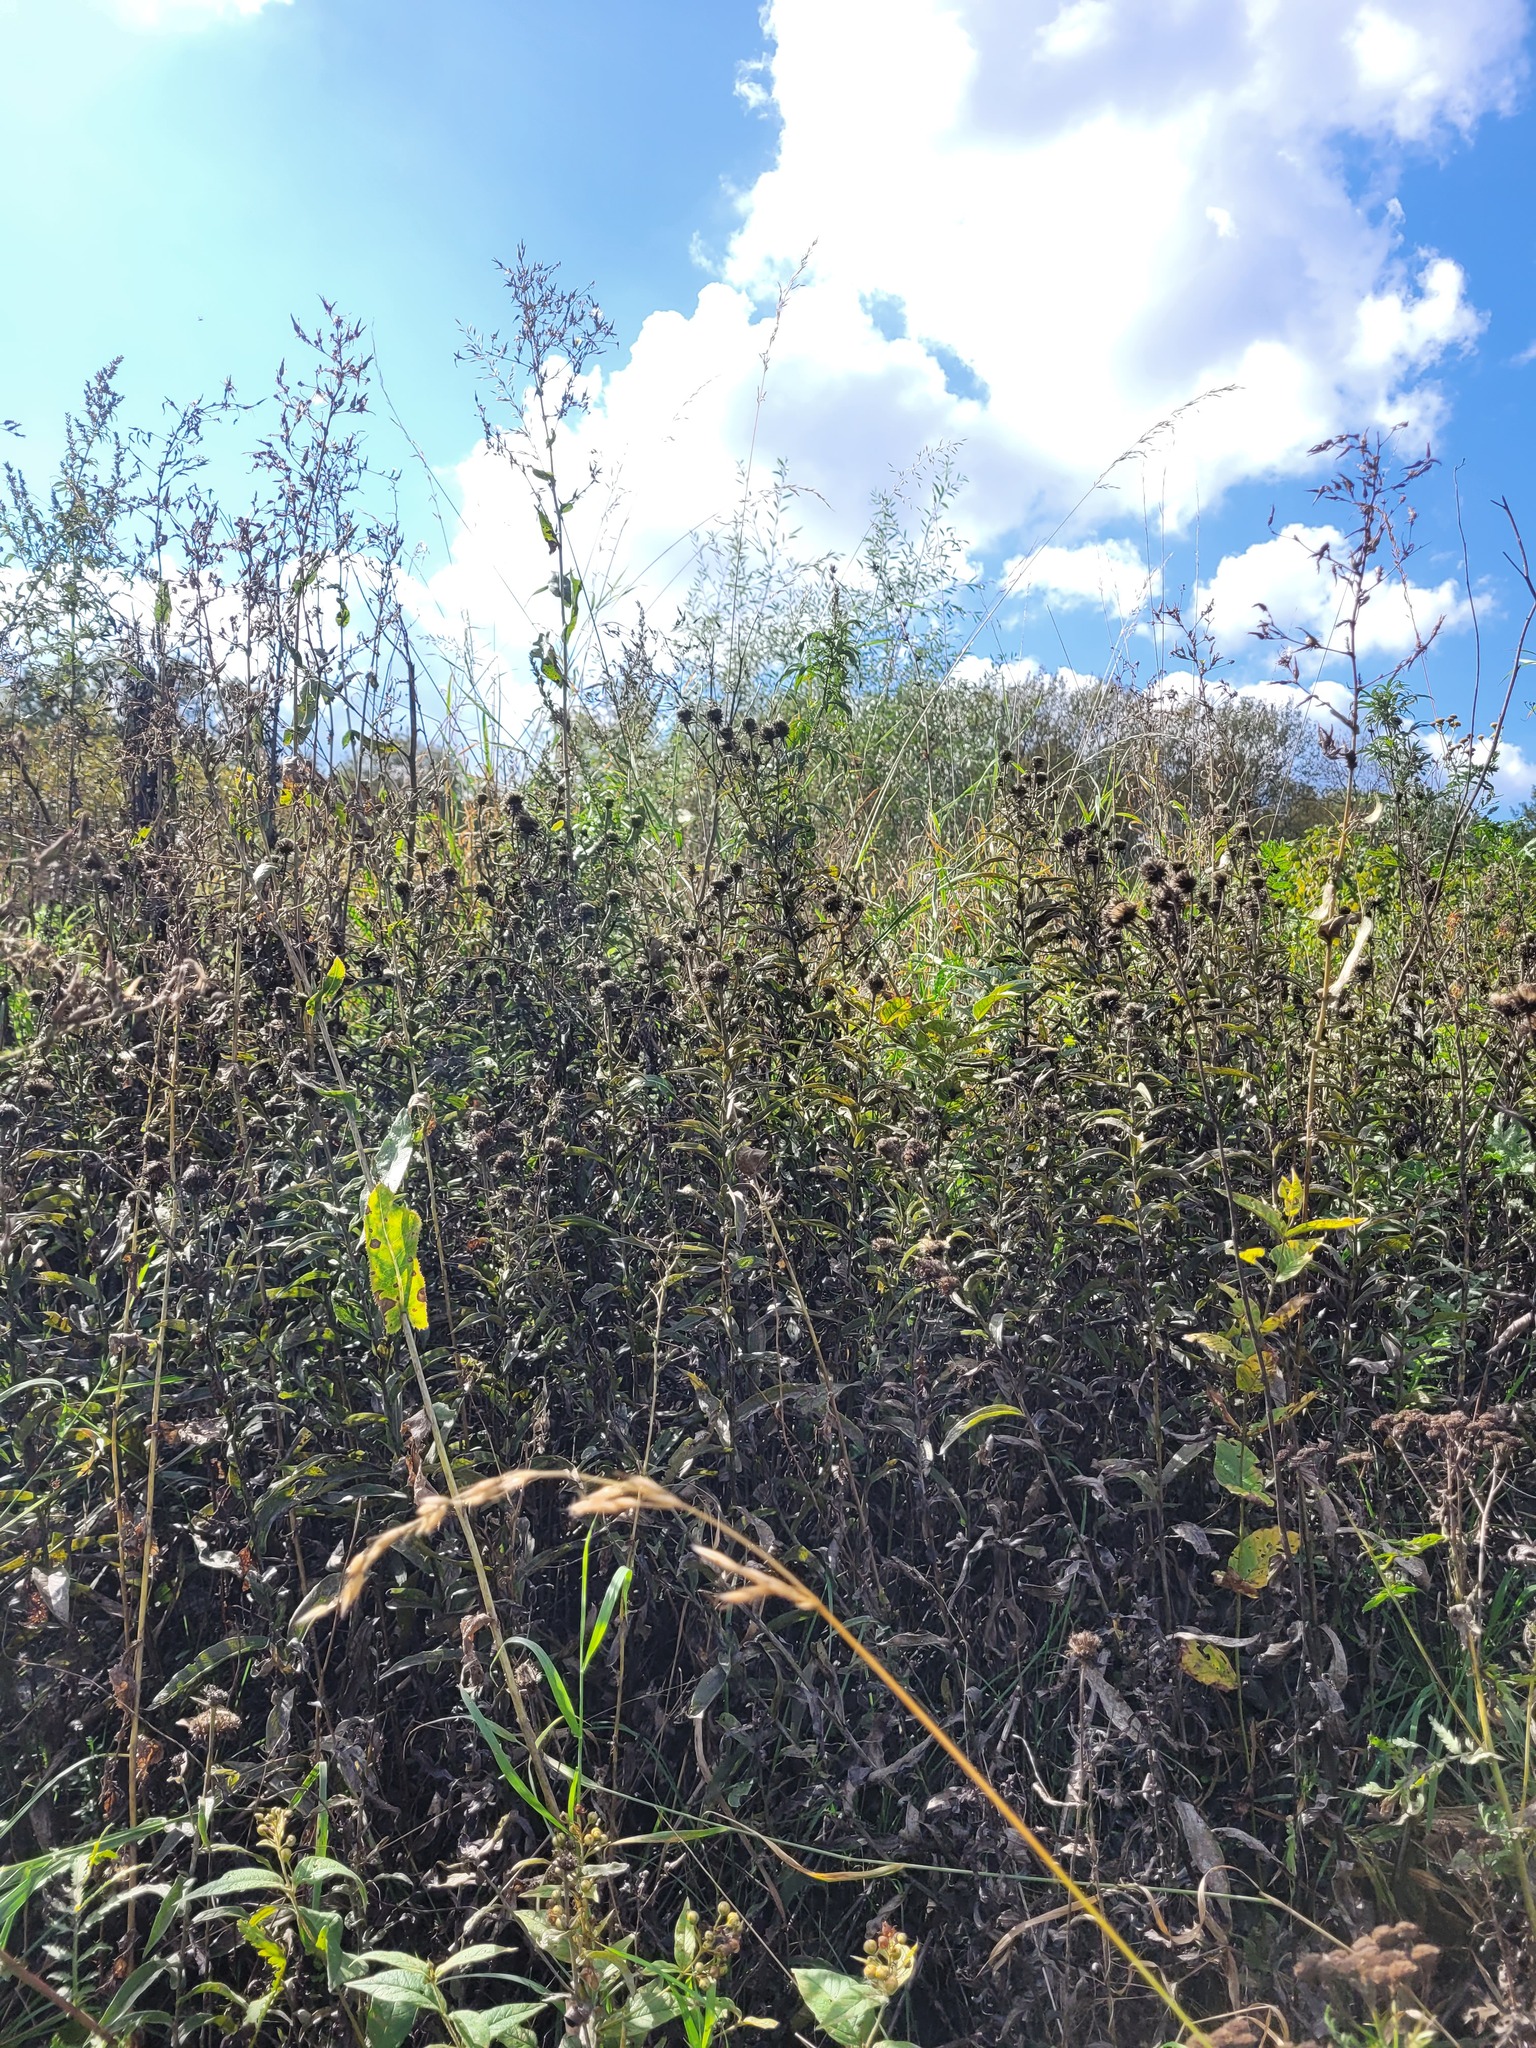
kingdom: Plantae
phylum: Tracheophyta
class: Magnoliopsida
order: Asterales
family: Asteraceae
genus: Pentanema
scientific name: Pentanema salicinum
